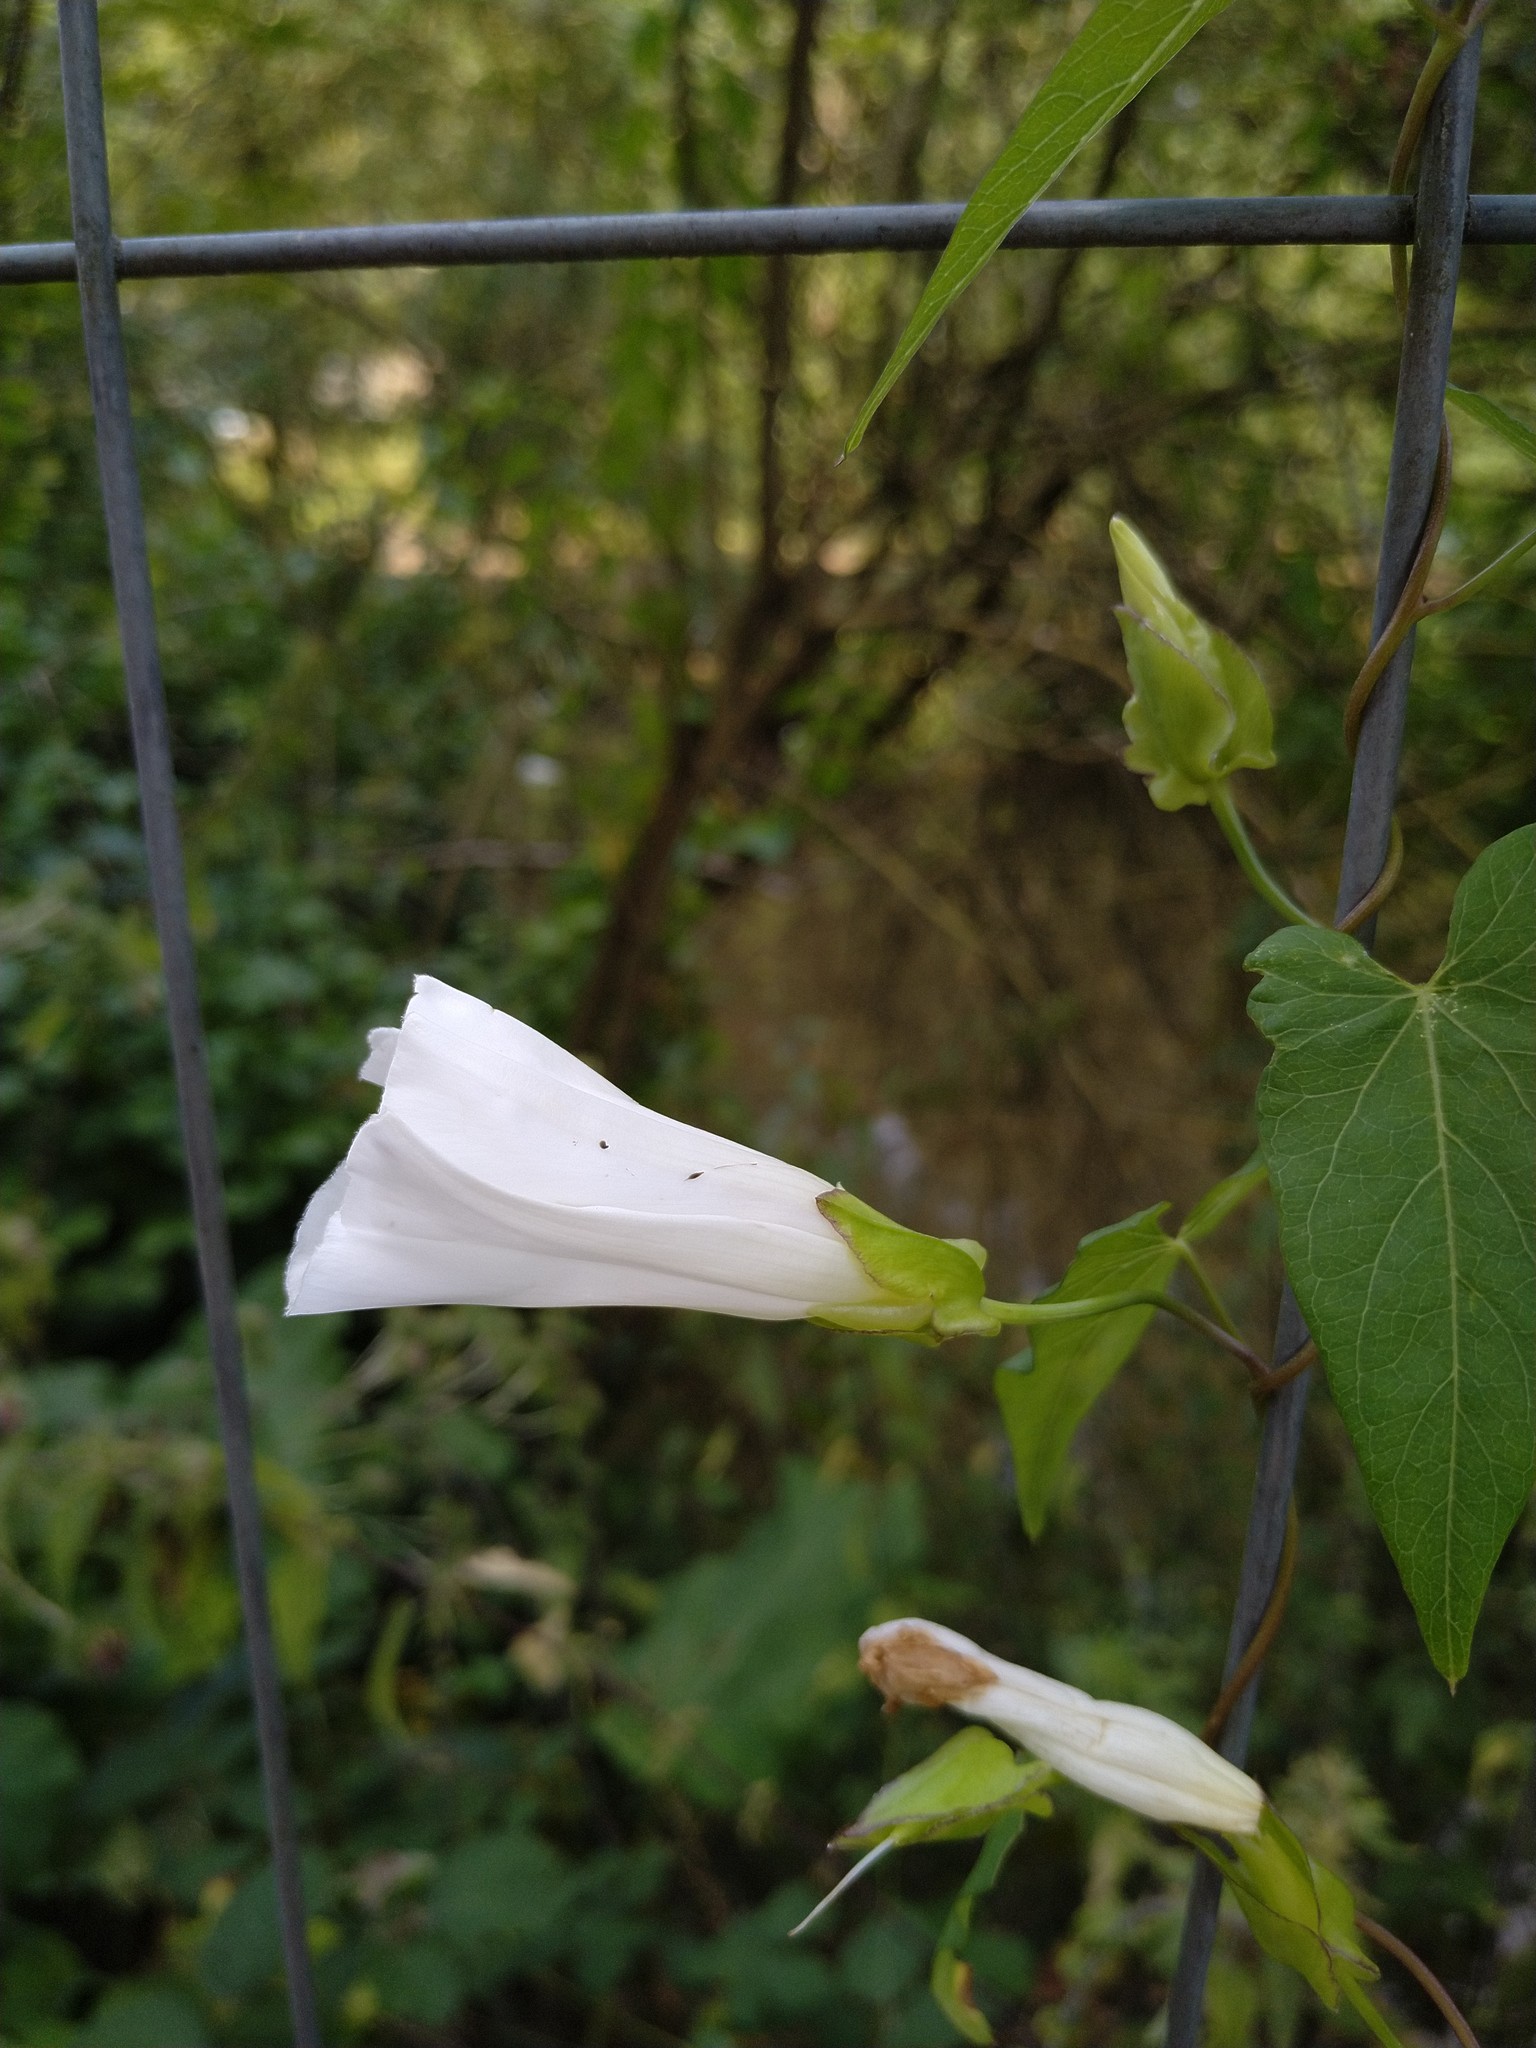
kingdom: Plantae
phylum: Tracheophyta
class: Magnoliopsida
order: Solanales
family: Convolvulaceae
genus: Calystegia
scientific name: Calystegia sepium
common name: Hedge bindweed
